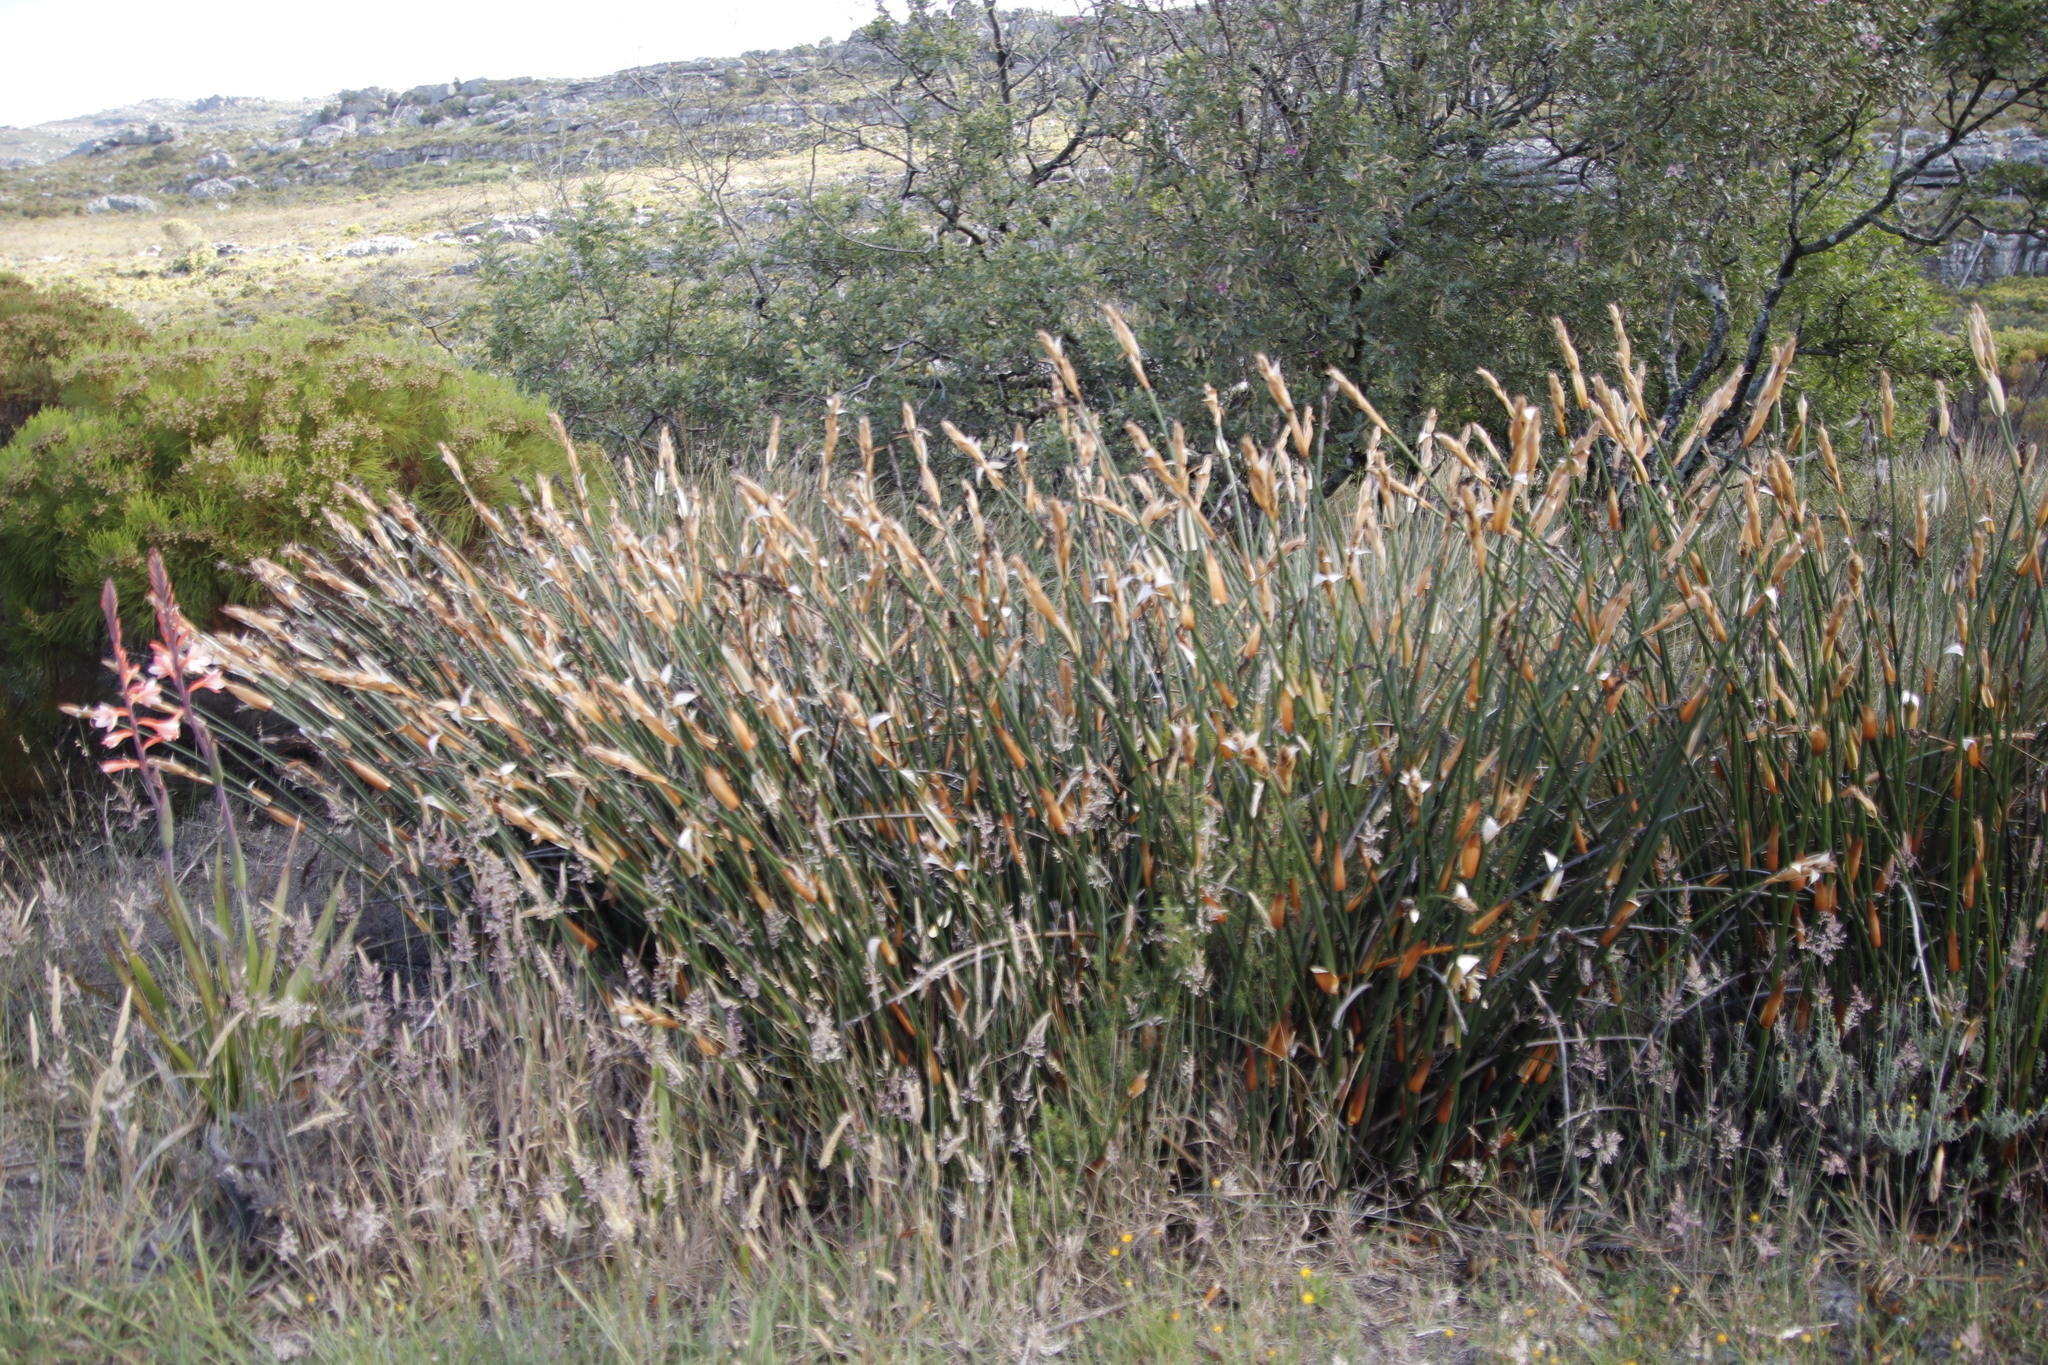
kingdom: Plantae
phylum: Tracheophyta
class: Liliopsida
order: Poales
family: Restionaceae
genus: Elegia
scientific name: Elegia mucronata
